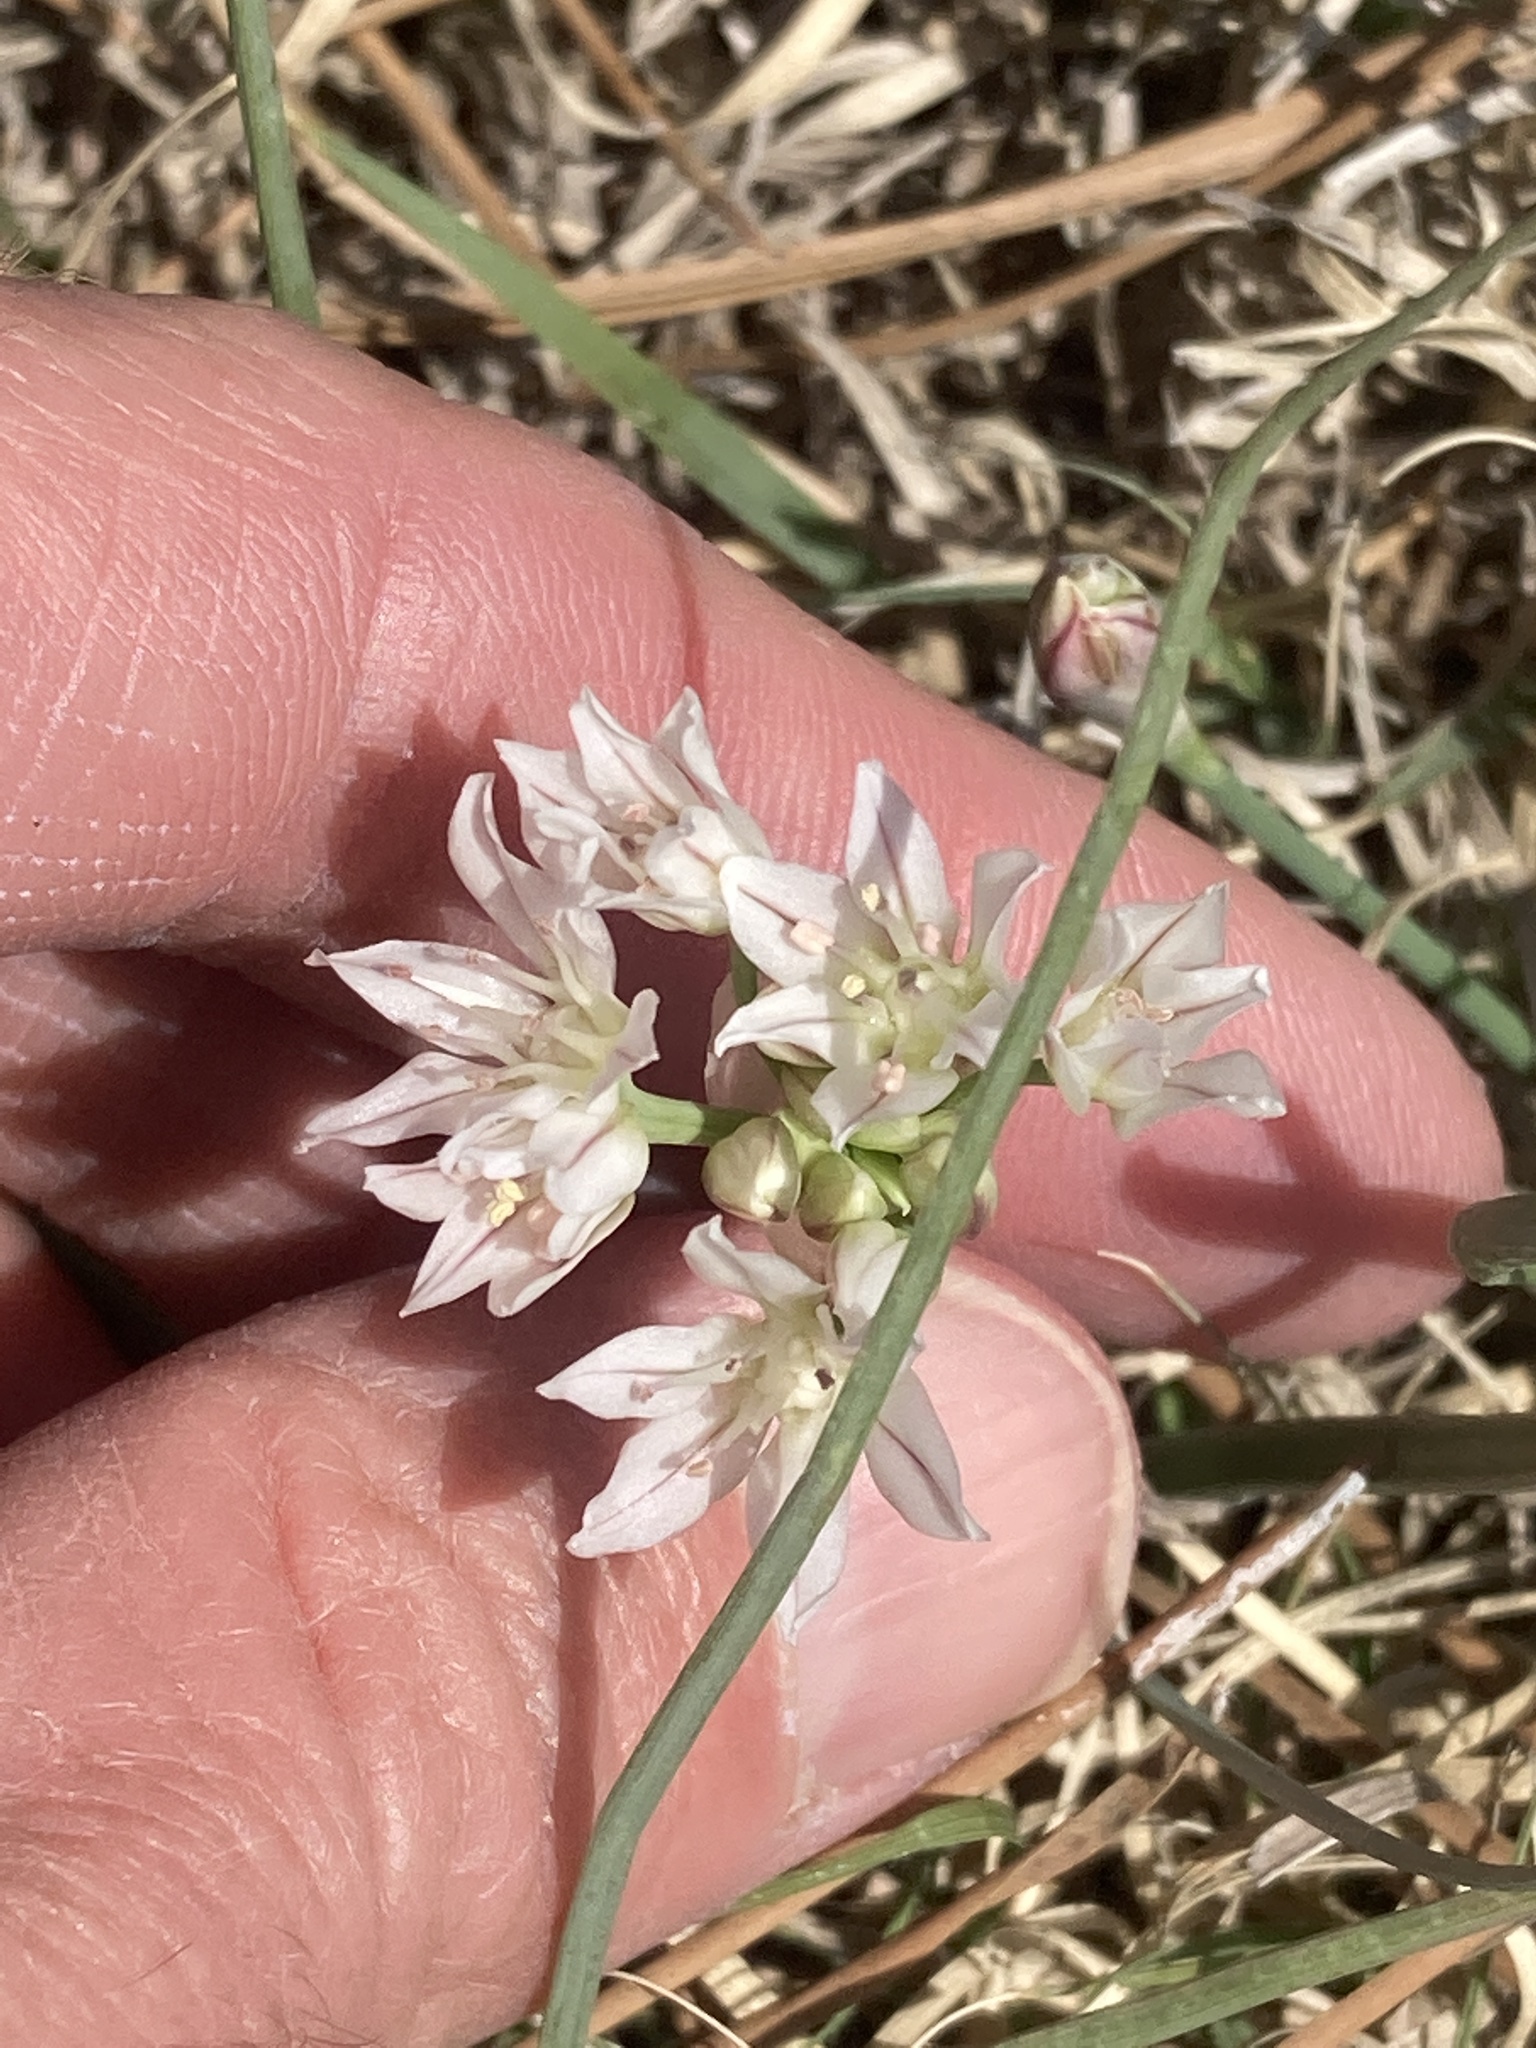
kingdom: Plantae
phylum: Tracheophyta
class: Liliopsida
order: Asparagales
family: Amaryllidaceae
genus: Allium
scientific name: Allium drummondii
